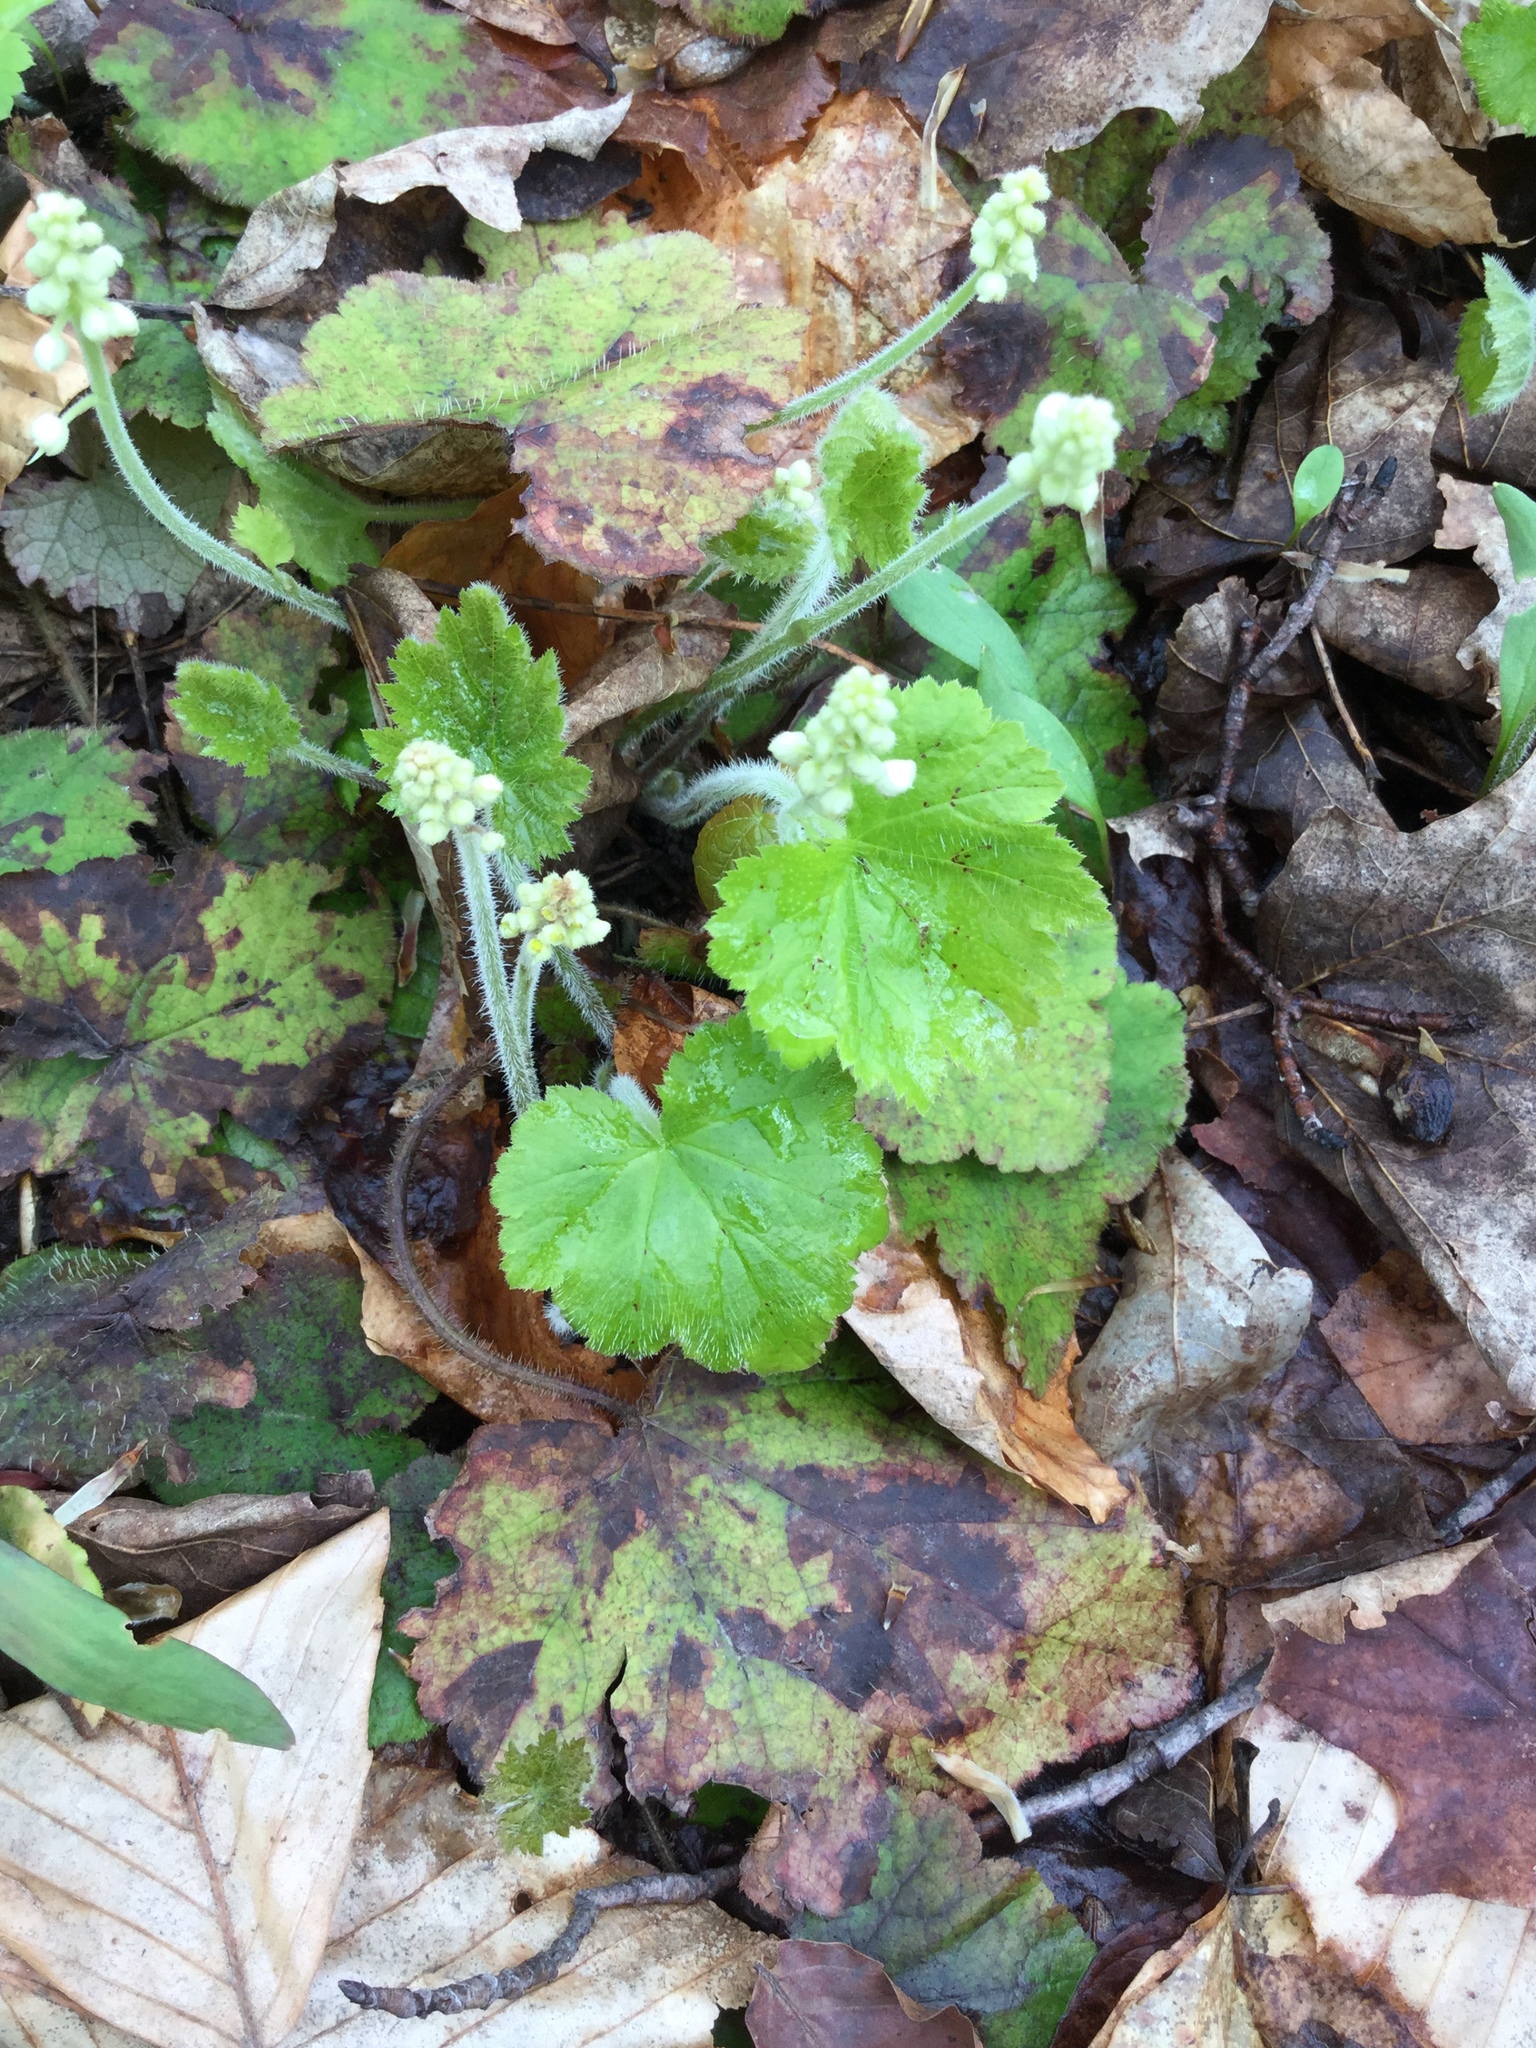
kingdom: Plantae
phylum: Tracheophyta
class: Magnoliopsida
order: Saxifragales
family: Saxifragaceae
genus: Tiarella
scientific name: Tiarella stolonifera
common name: Stoloniferous foamflower
